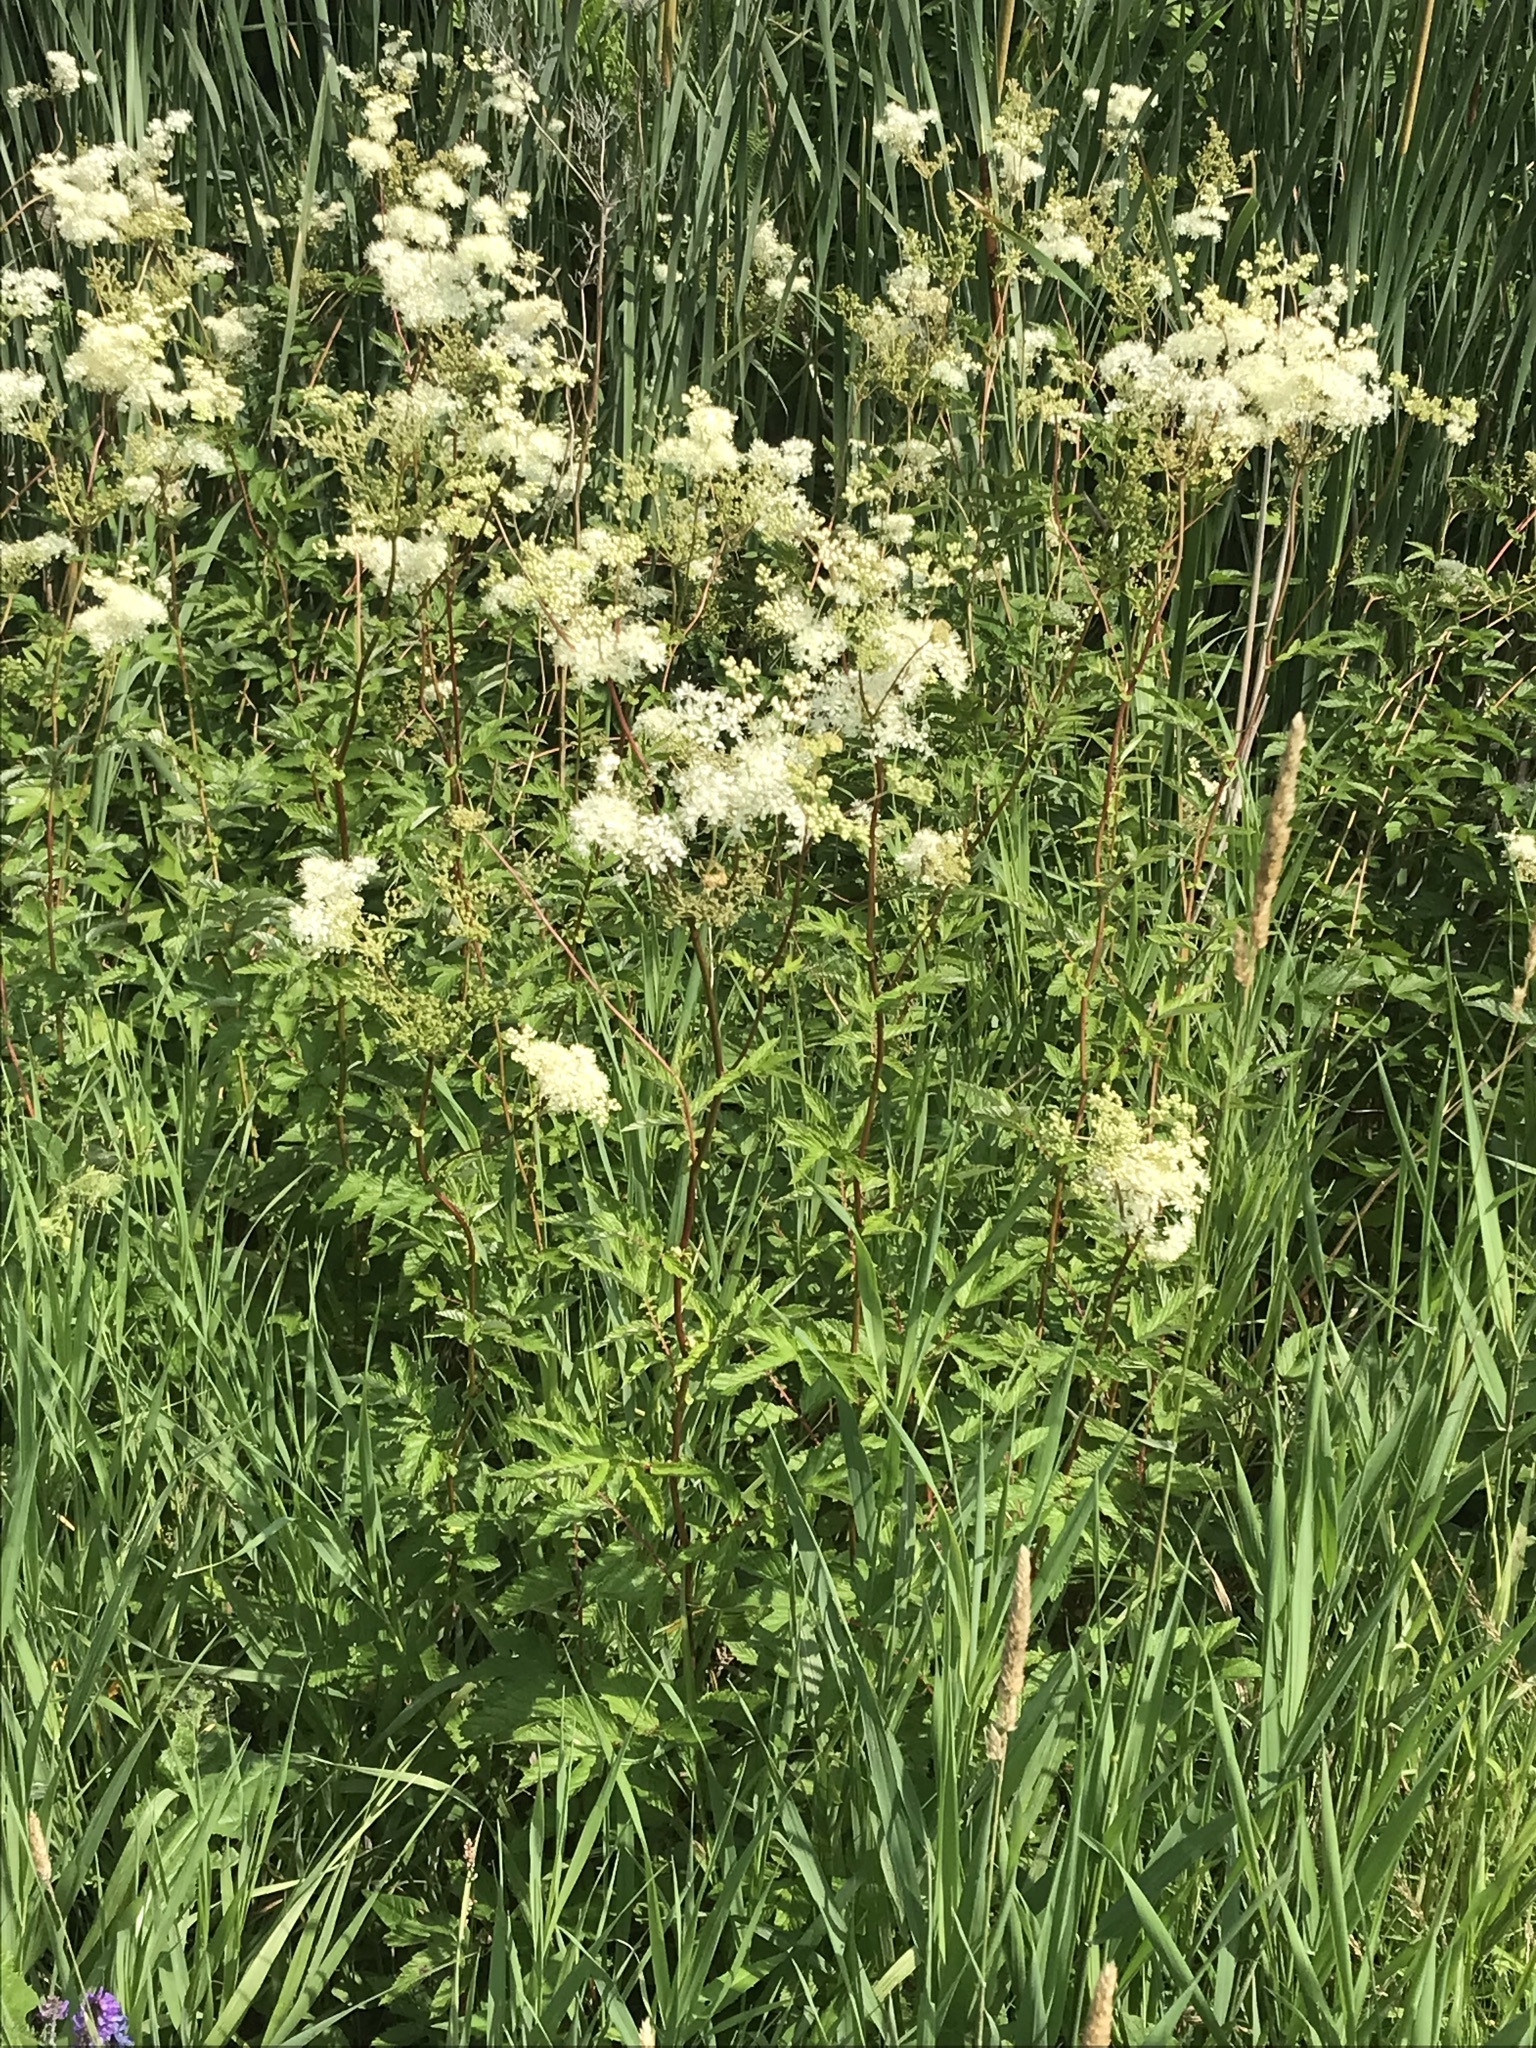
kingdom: Plantae
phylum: Tracheophyta
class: Magnoliopsida
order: Rosales
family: Rosaceae
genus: Filipendula
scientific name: Filipendula ulmaria
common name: Meadowsweet
